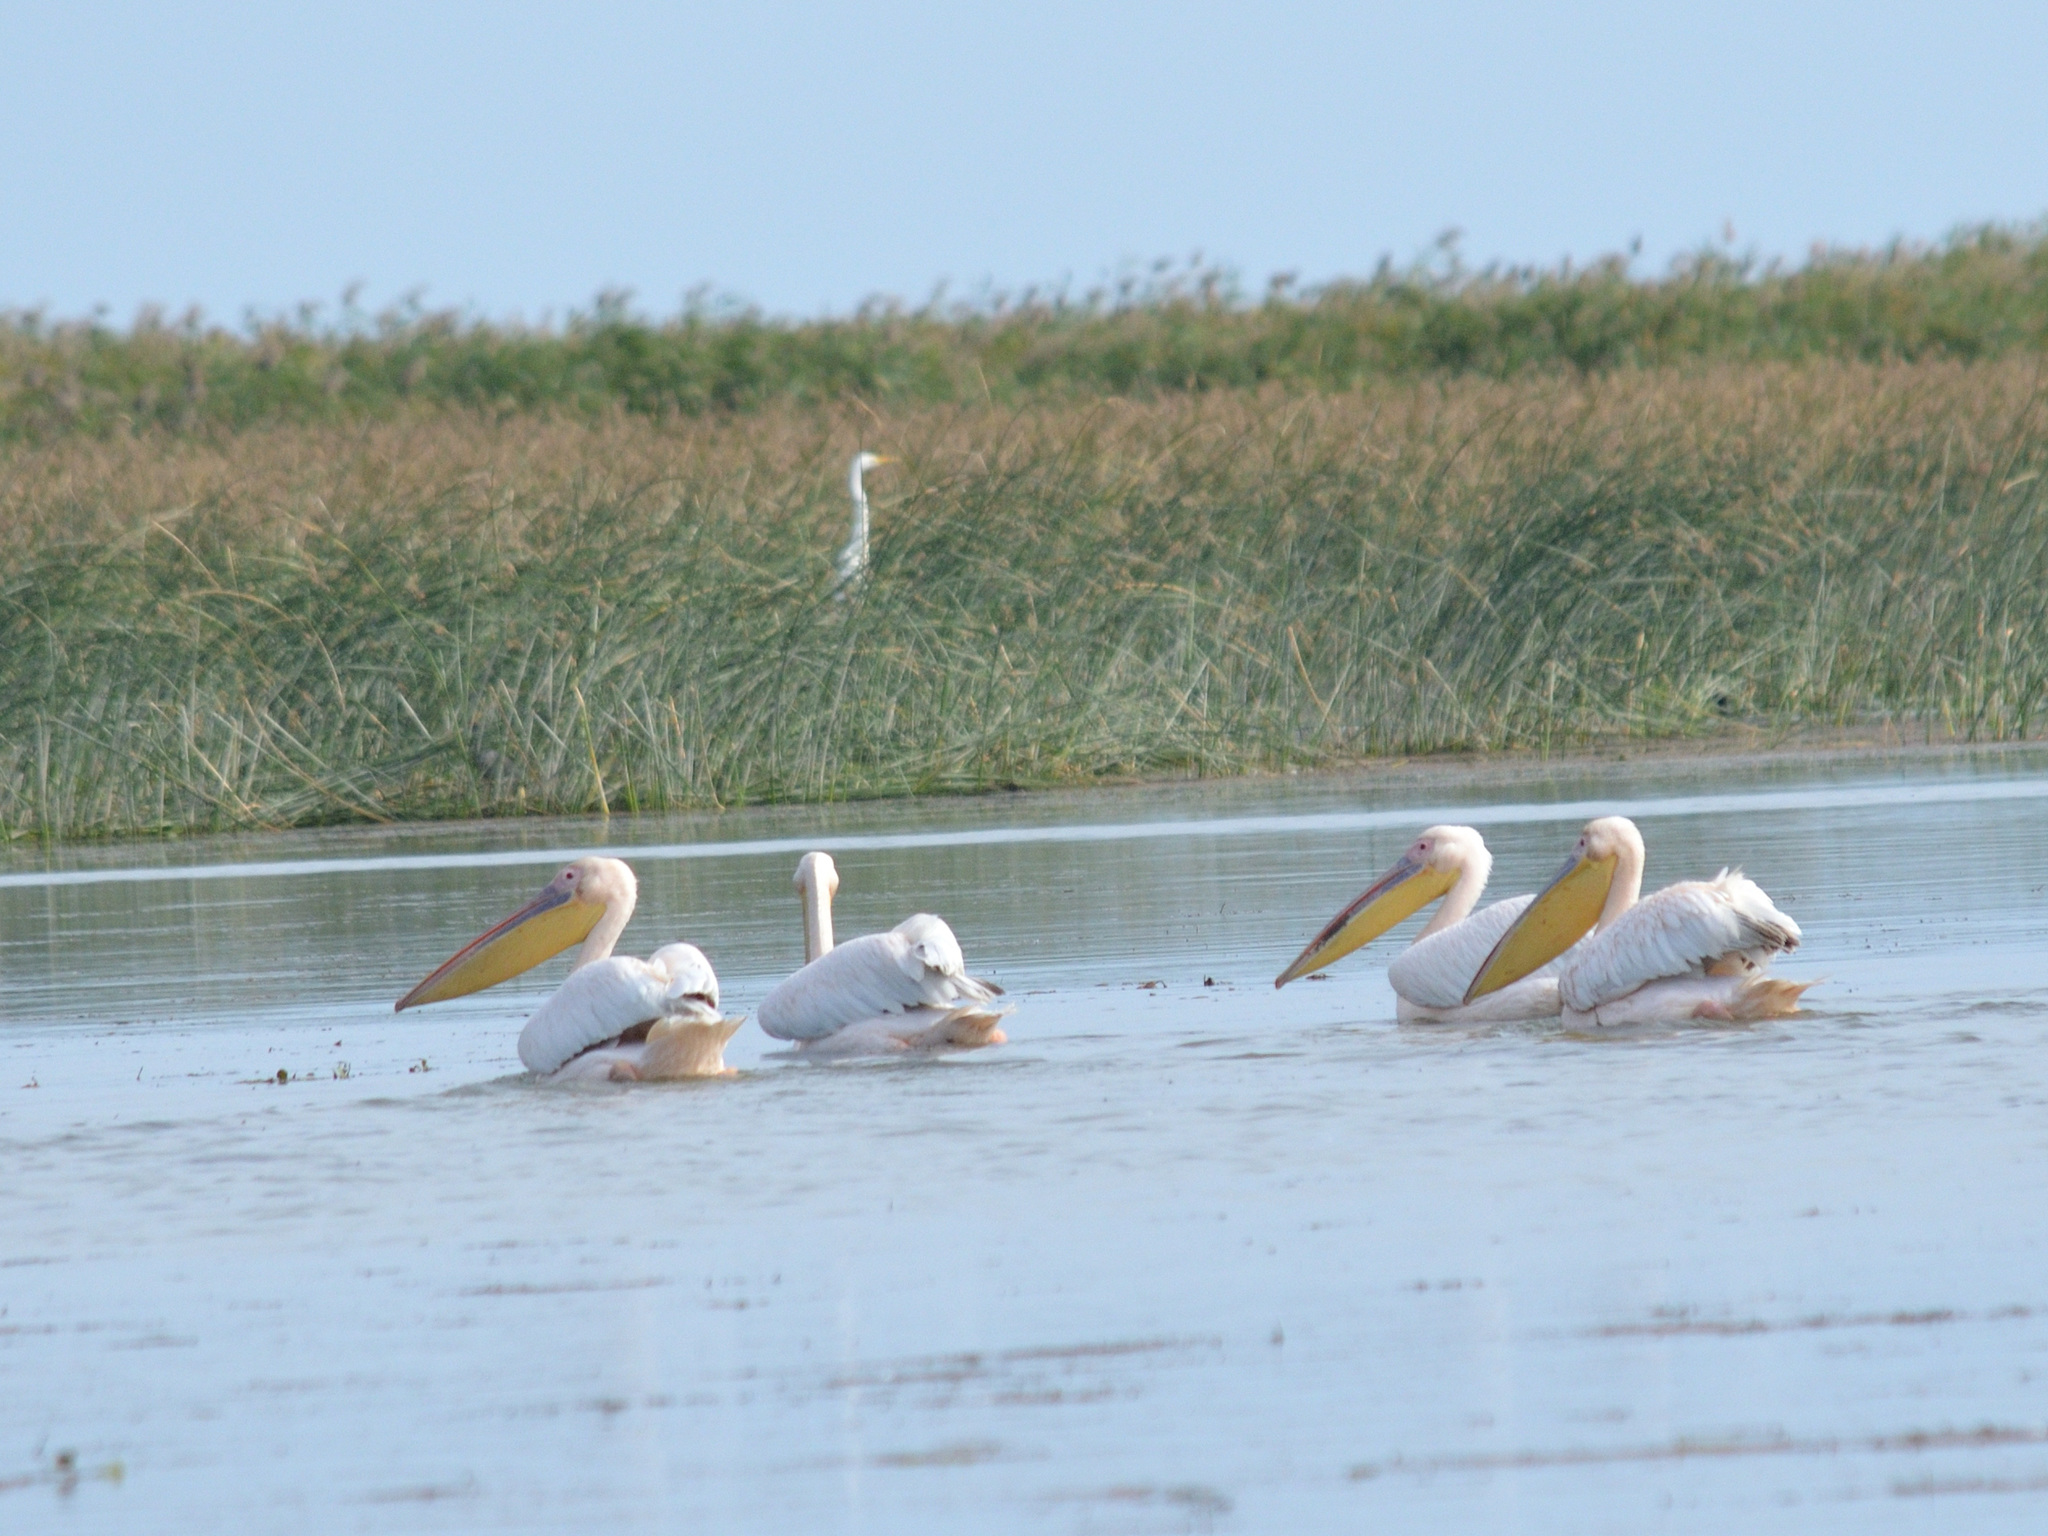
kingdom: Animalia
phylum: Chordata
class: Aves
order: Pelecaniformes
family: Pelecanidae
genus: Pelecanus
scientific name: Pelecanus onocrotalus
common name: Great white pelican
